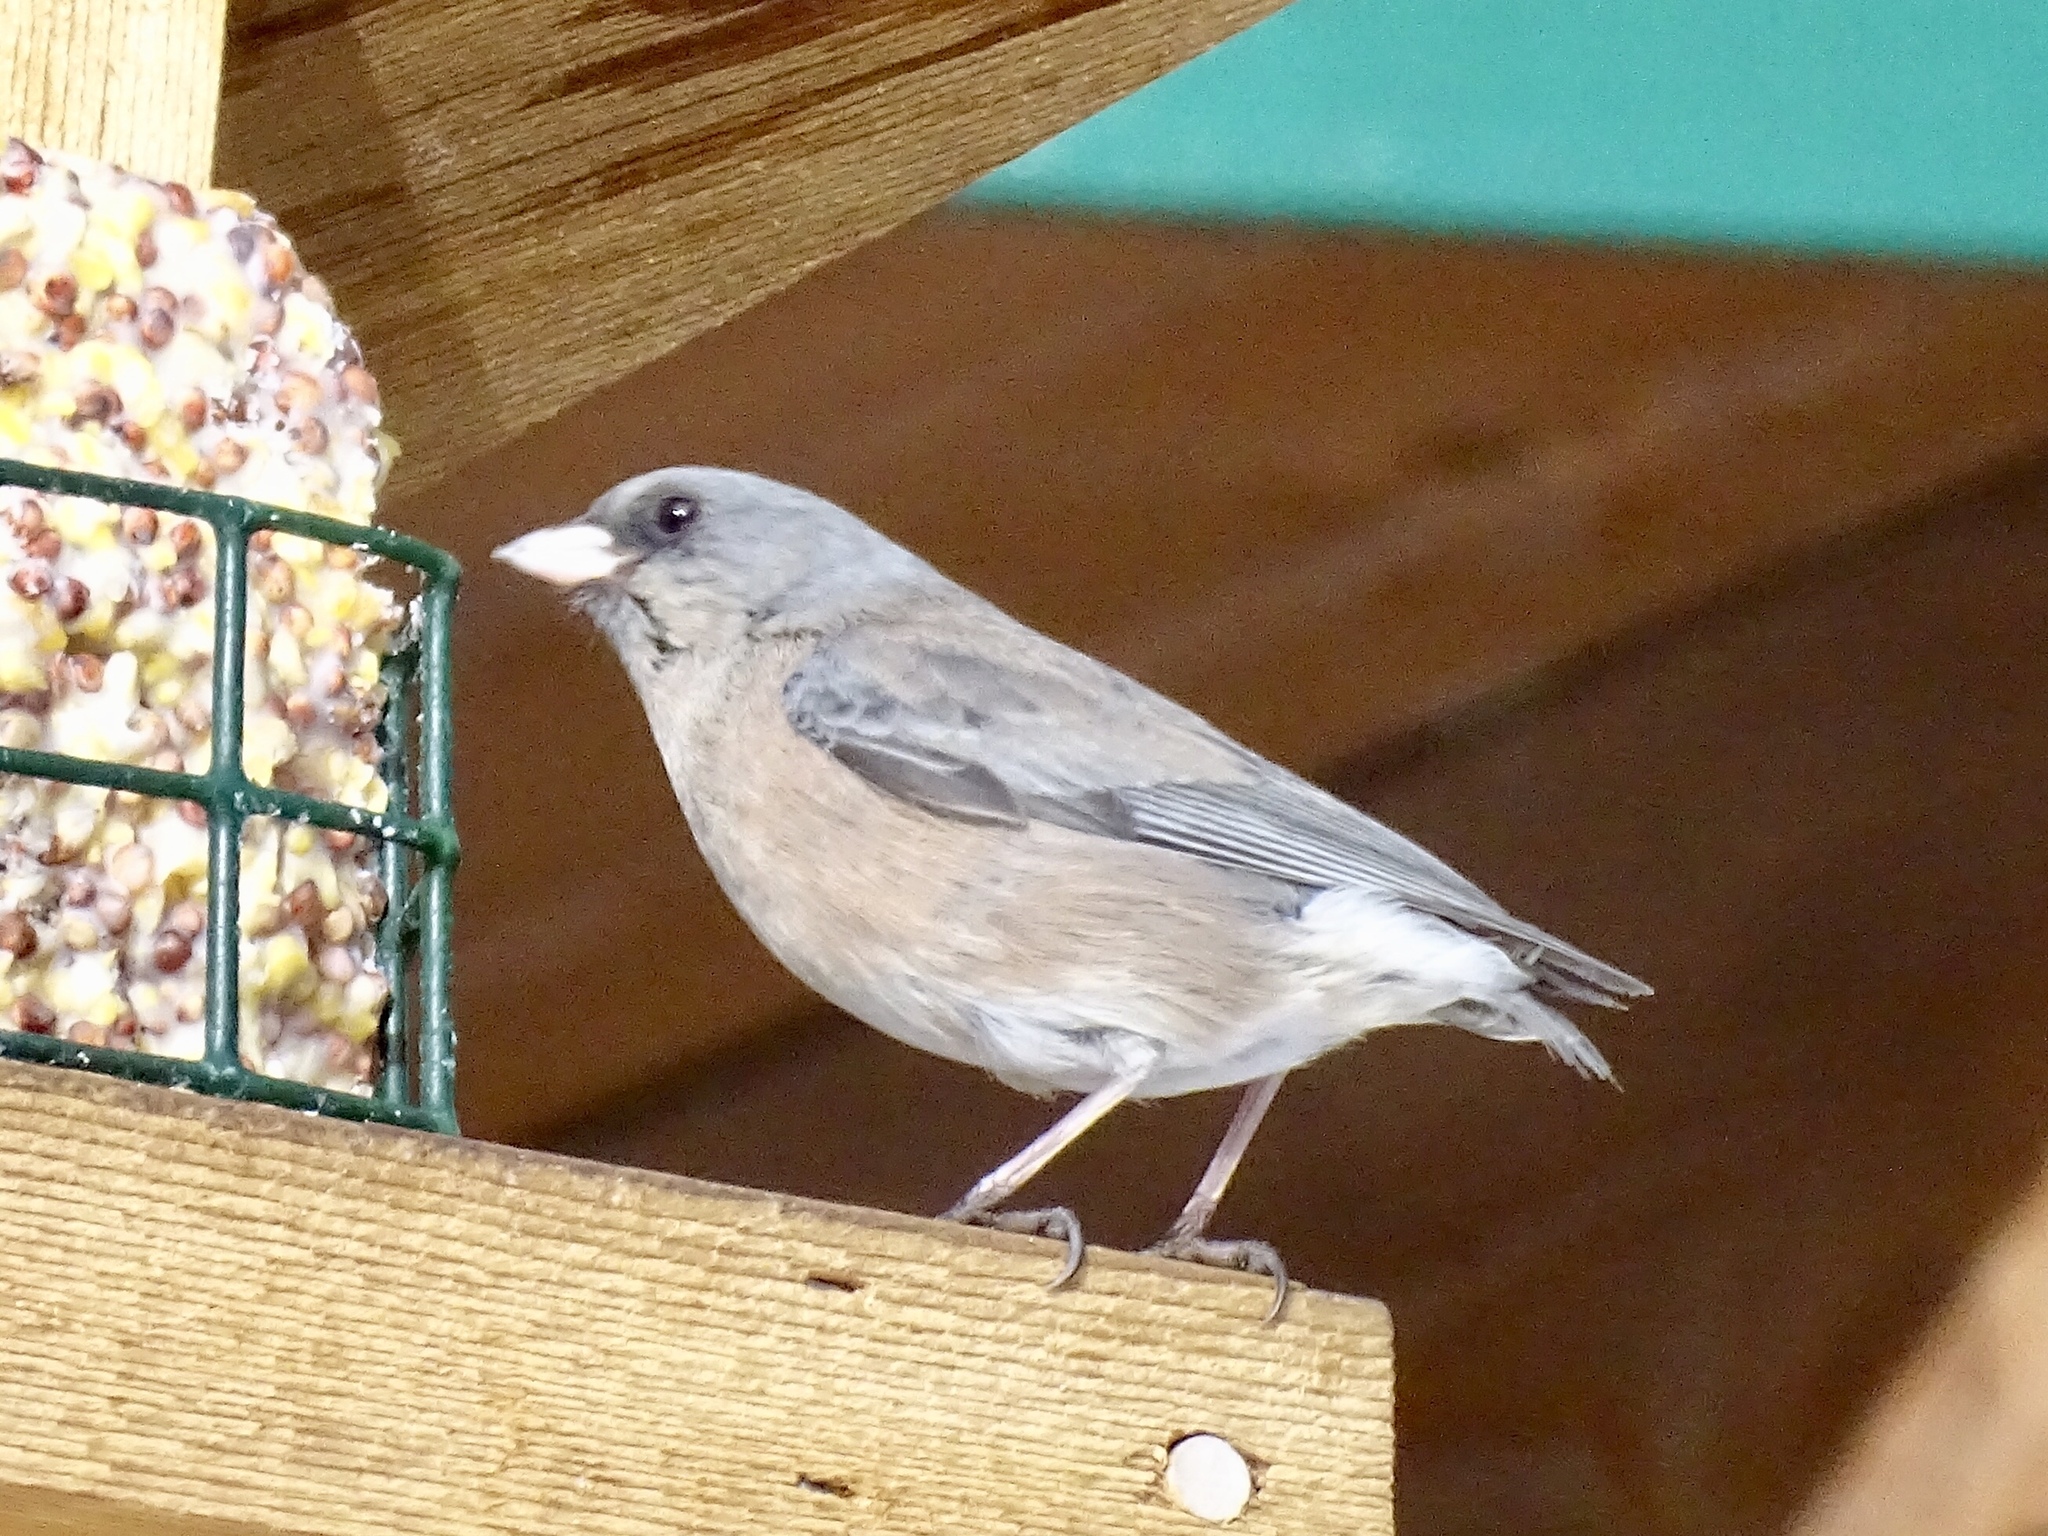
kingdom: Animalia
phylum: Chordata
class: Aves
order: Passeriformes
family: Passerellidae
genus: Junco
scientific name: Junco hyemalis
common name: Dark-eyed junco
